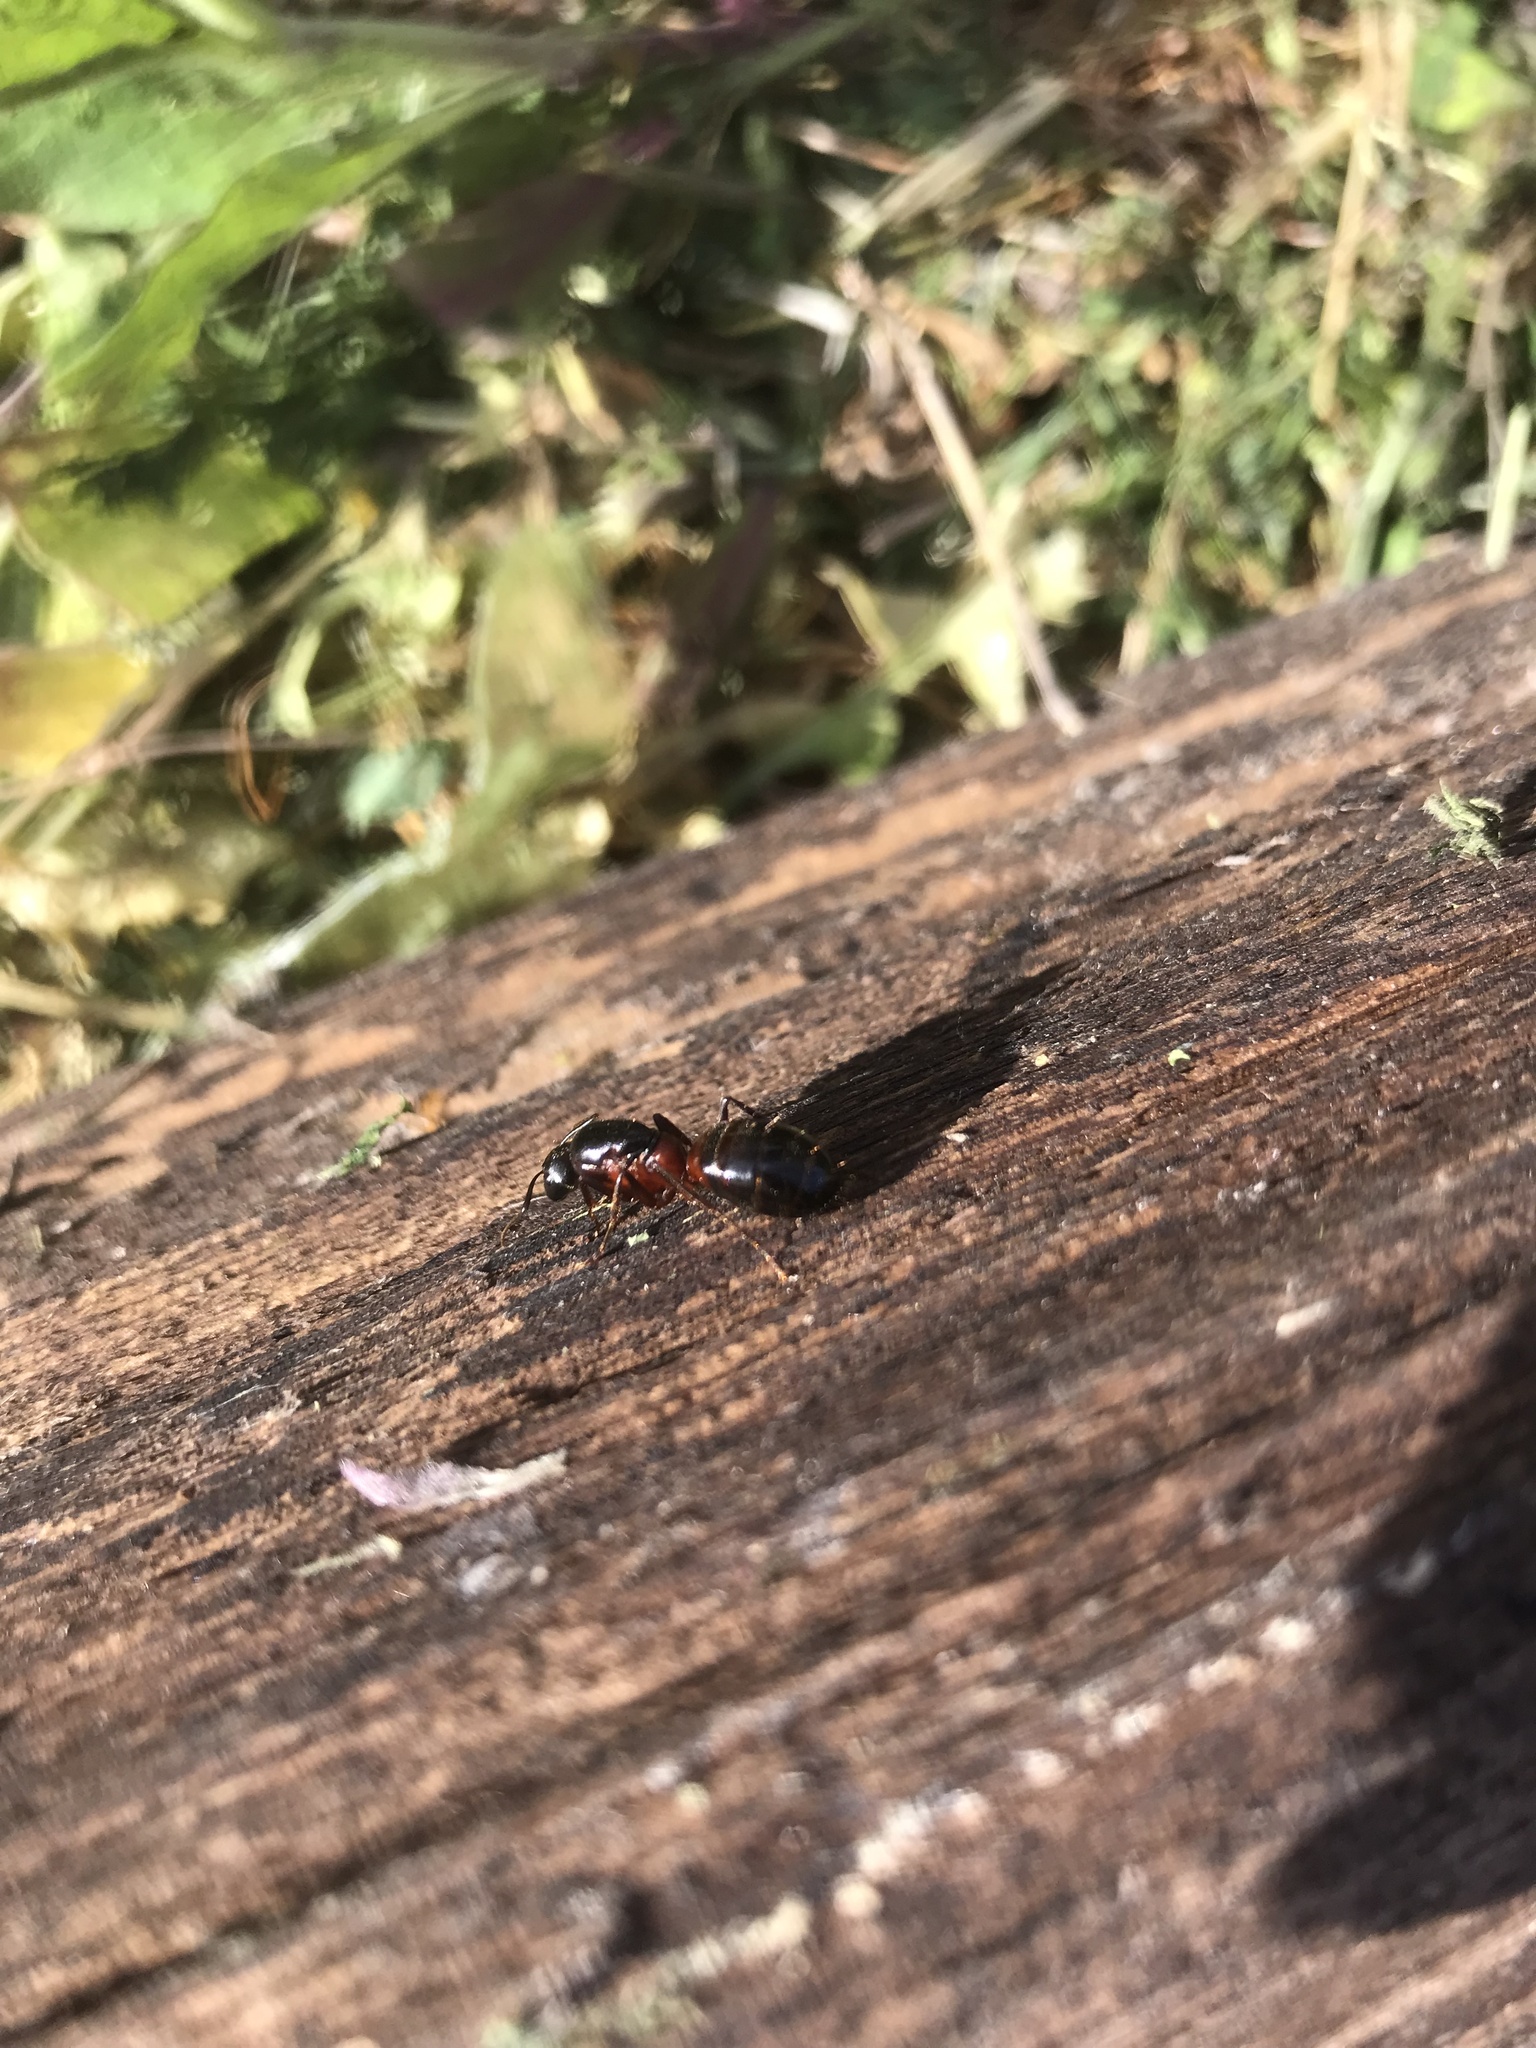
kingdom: Animalia
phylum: Arthropoda
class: Insecta
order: Hymenoptera
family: Formicidae
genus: Camponotus
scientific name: Camponotus vicinus
